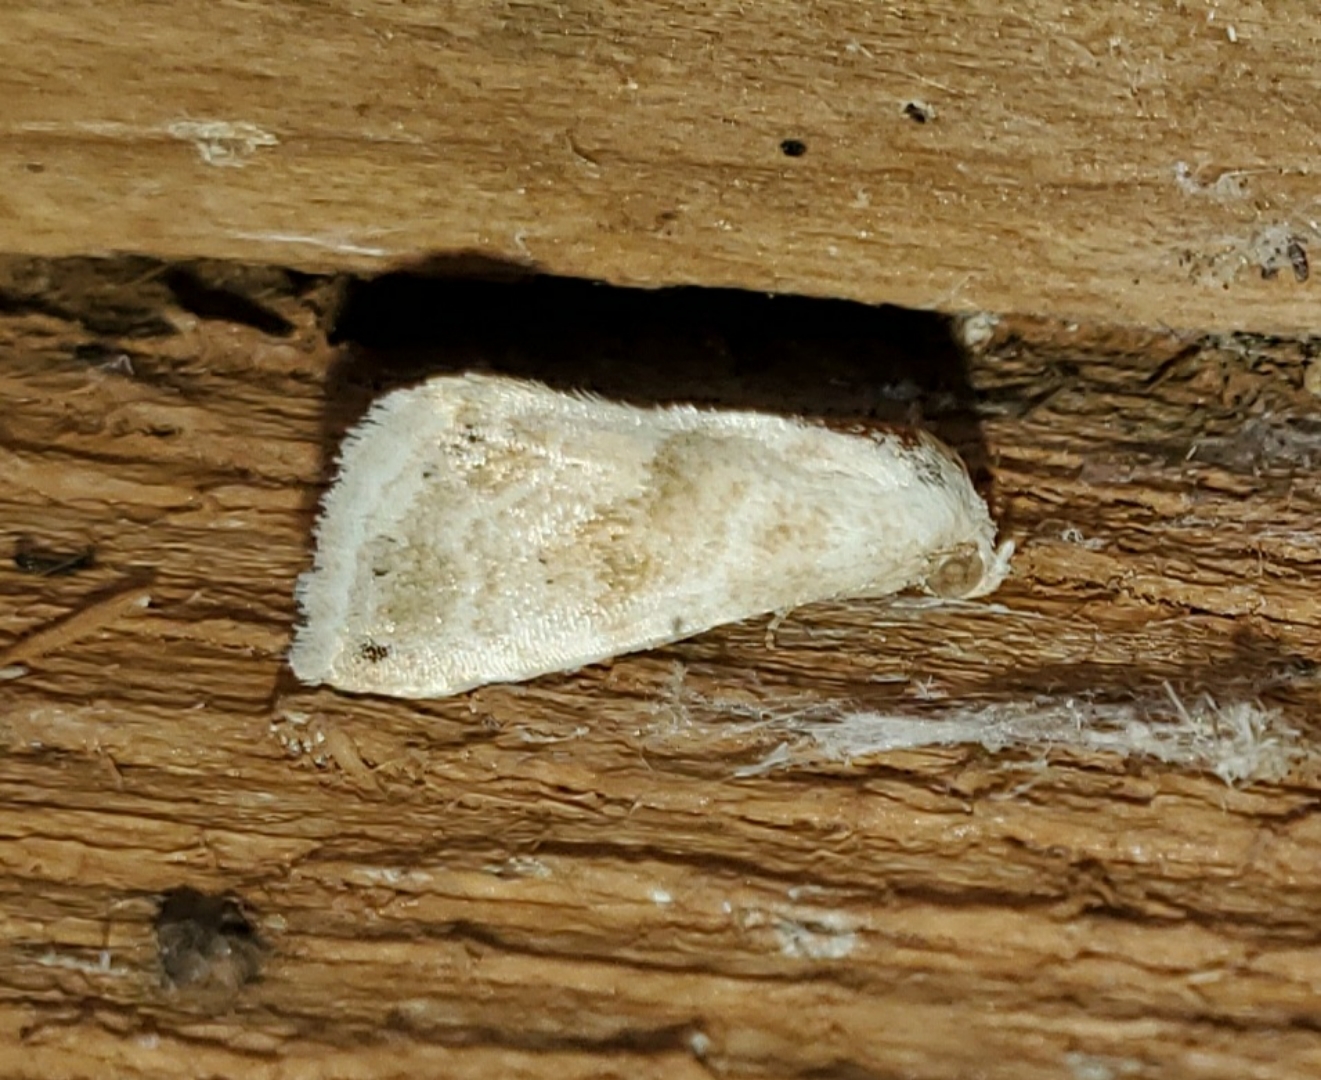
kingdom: Animalia
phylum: Arthropoda
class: Insecta
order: Lepidoptera
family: Noctuidae
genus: Eublemma
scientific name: Eublemma minima
